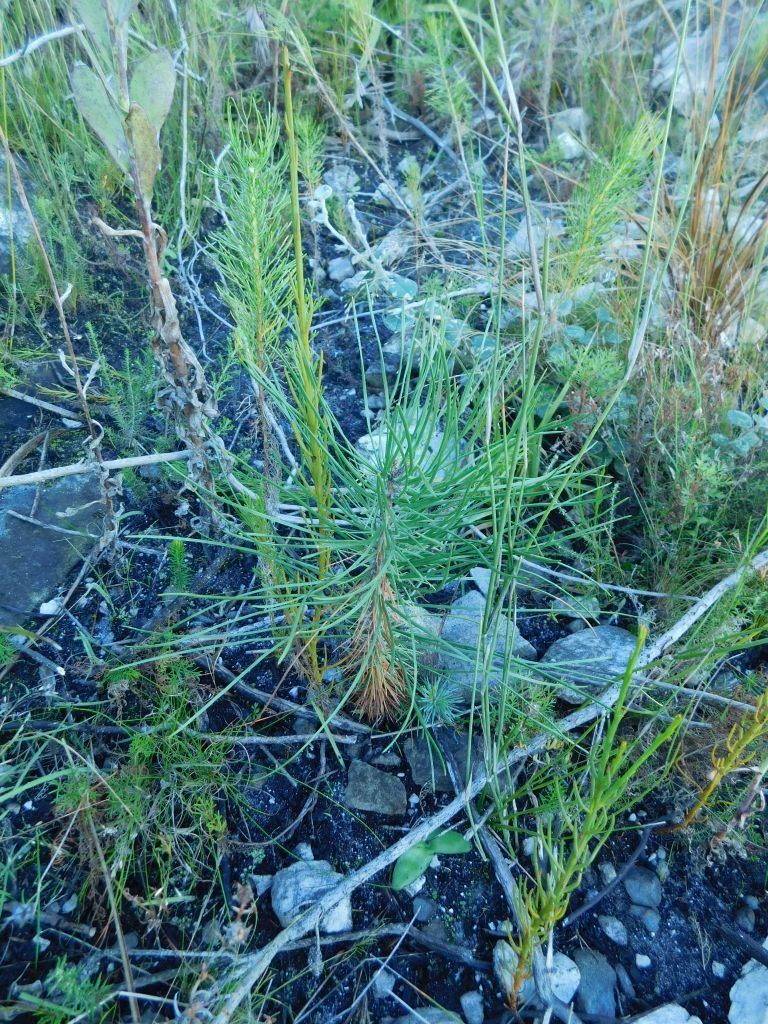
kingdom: Plantae
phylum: Tracheophyta
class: Pinopsida
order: Pinales
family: Pinaceae
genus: Pinus
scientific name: Pinus pinaster
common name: Maritime pine
